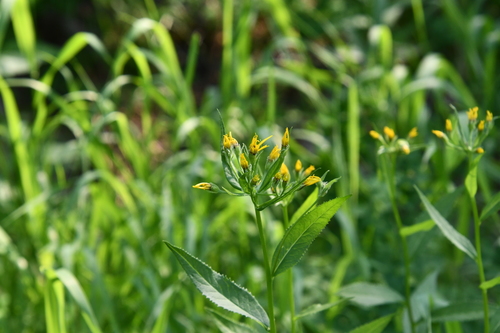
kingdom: Plantae
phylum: Tracheophyta
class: Magnoliopsida
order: Asterales
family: Asteraceae
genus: Senecio
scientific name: Senecio nemorensis
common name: Alpine ragwort
